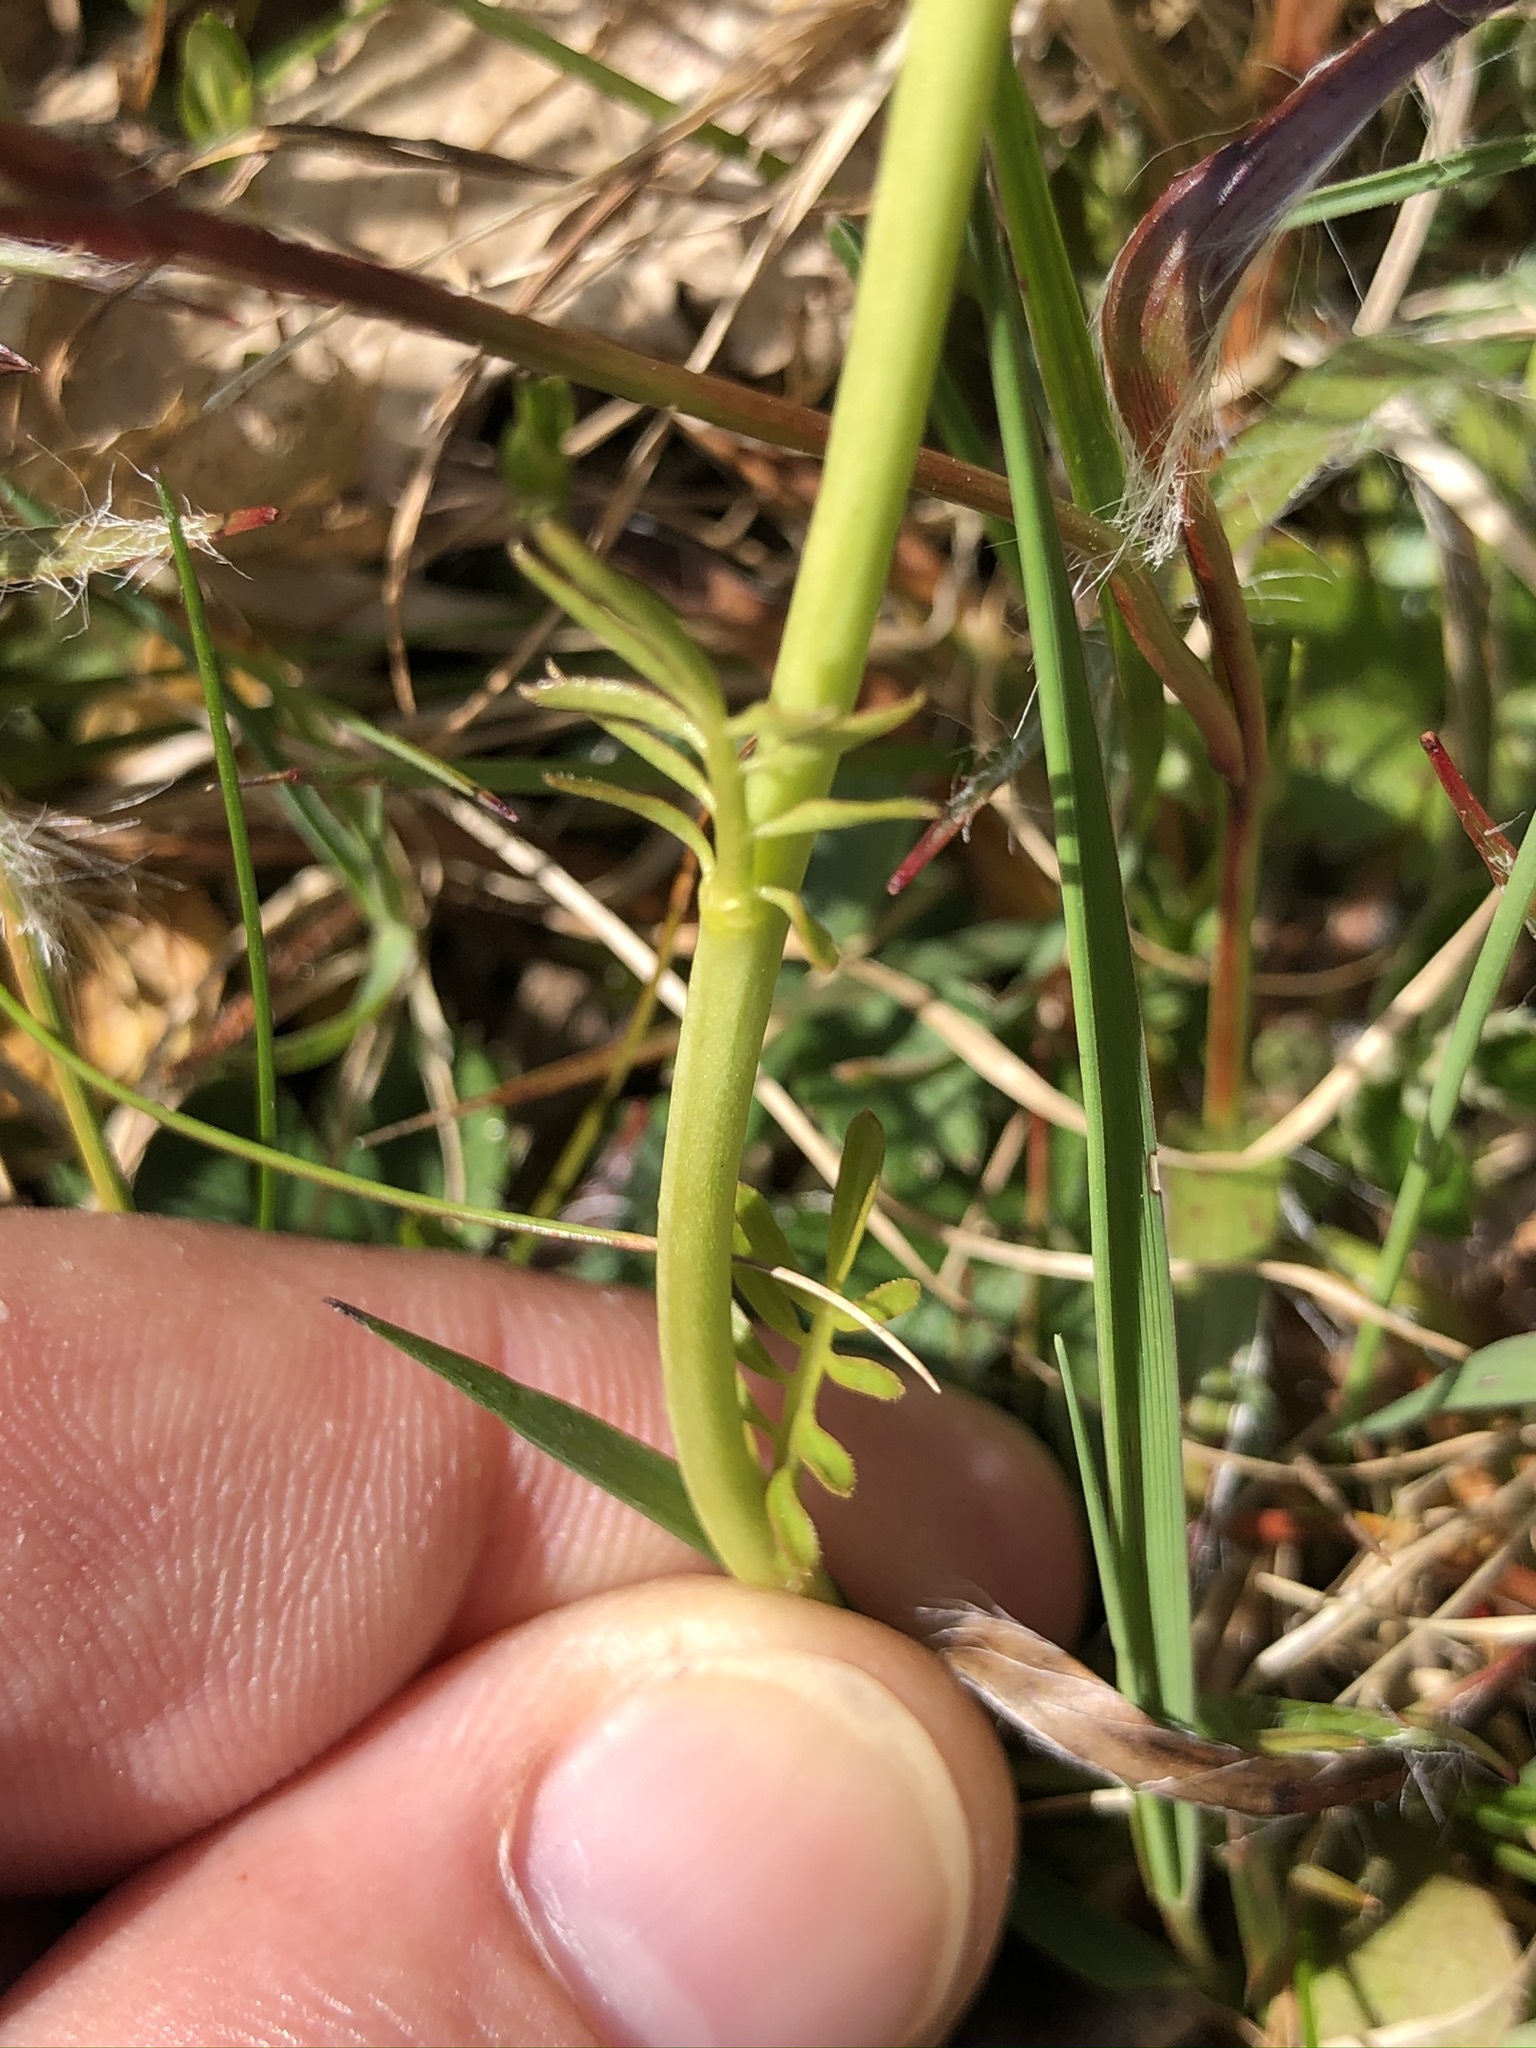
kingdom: Plantae
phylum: Tracheophyta
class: Magnoliopsida
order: Brassicales
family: Brassicaceae
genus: Cardamine
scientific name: Cardamine pratensis
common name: Cuckoo flower
